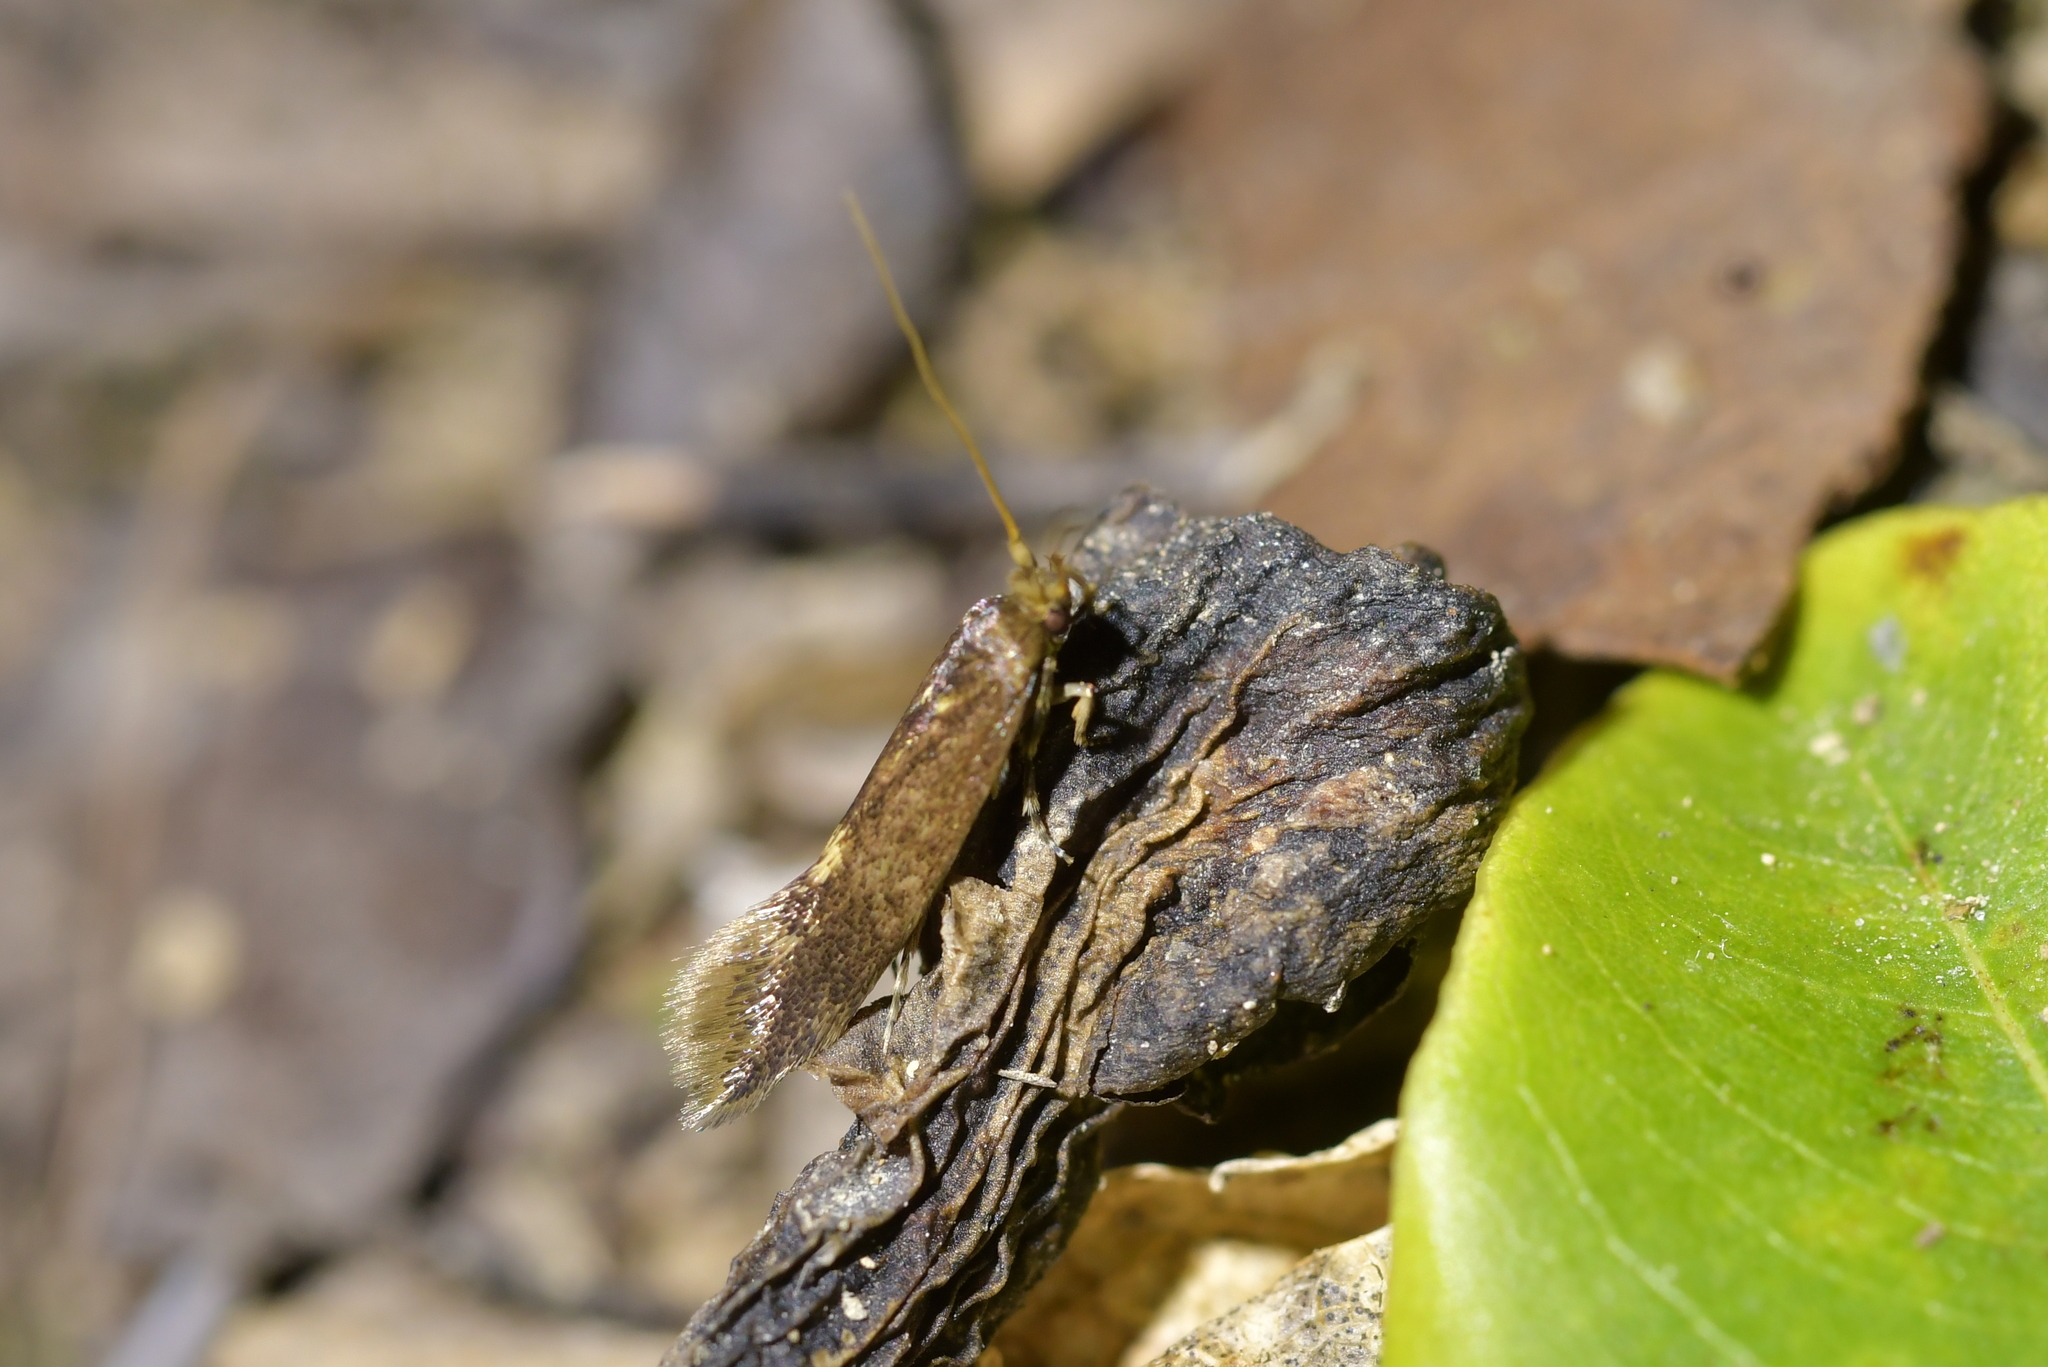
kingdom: Animalia
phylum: Arthropoda
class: Insecta
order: Lepidoptera
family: Tineidae
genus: Opogona
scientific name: Opogona omoscopa
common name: Moth
